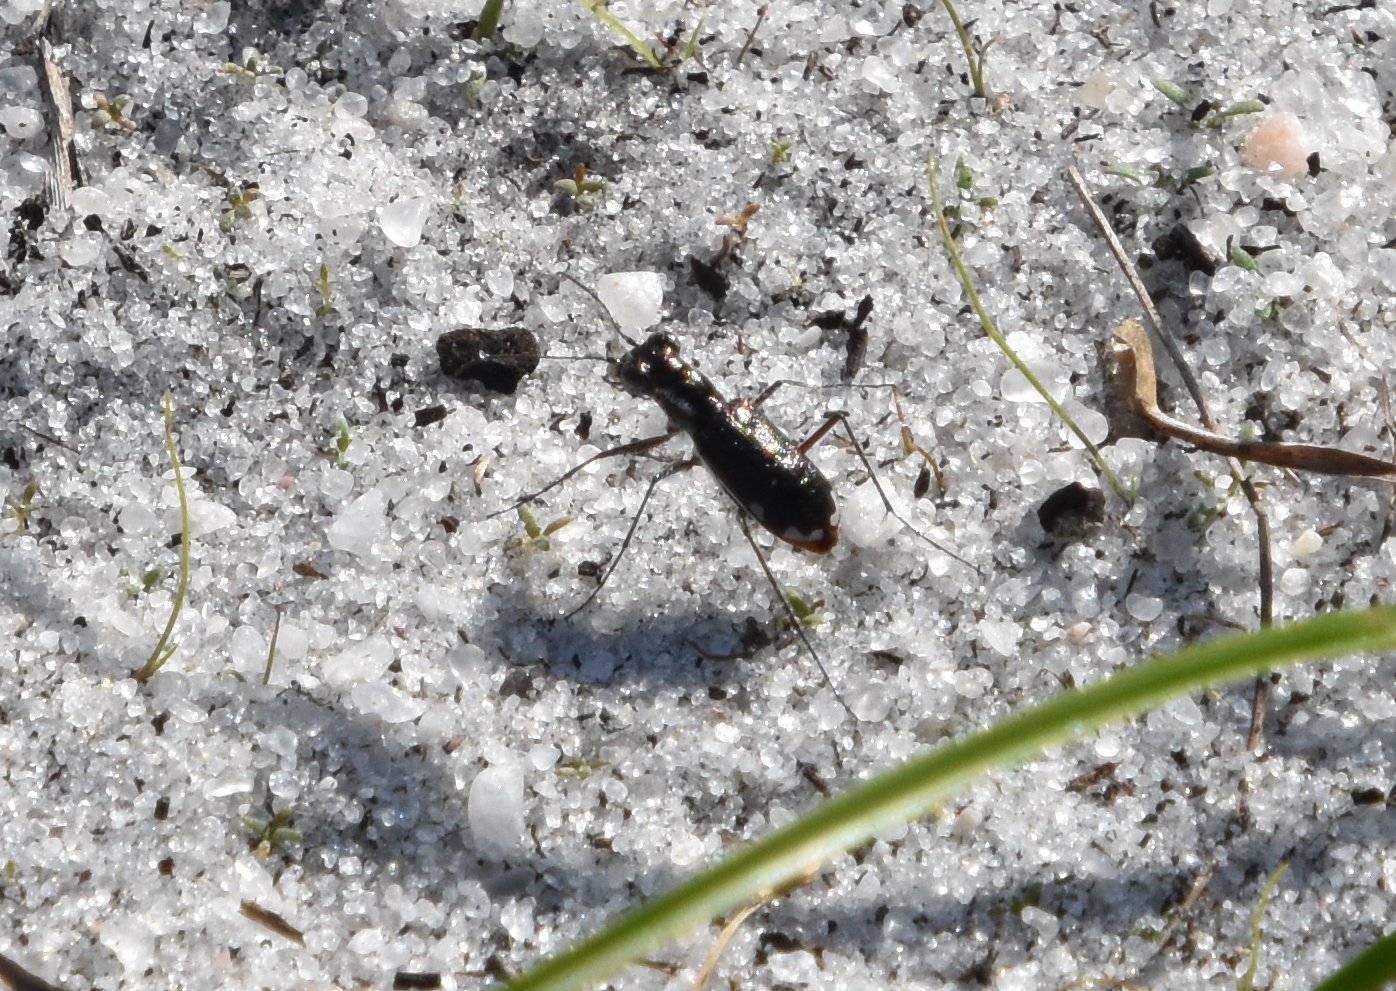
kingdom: Animalia
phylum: Arthropoda
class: Insecta
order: Coleoptera
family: Carabidae
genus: Cicindela
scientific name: Cicindela scabrosa
